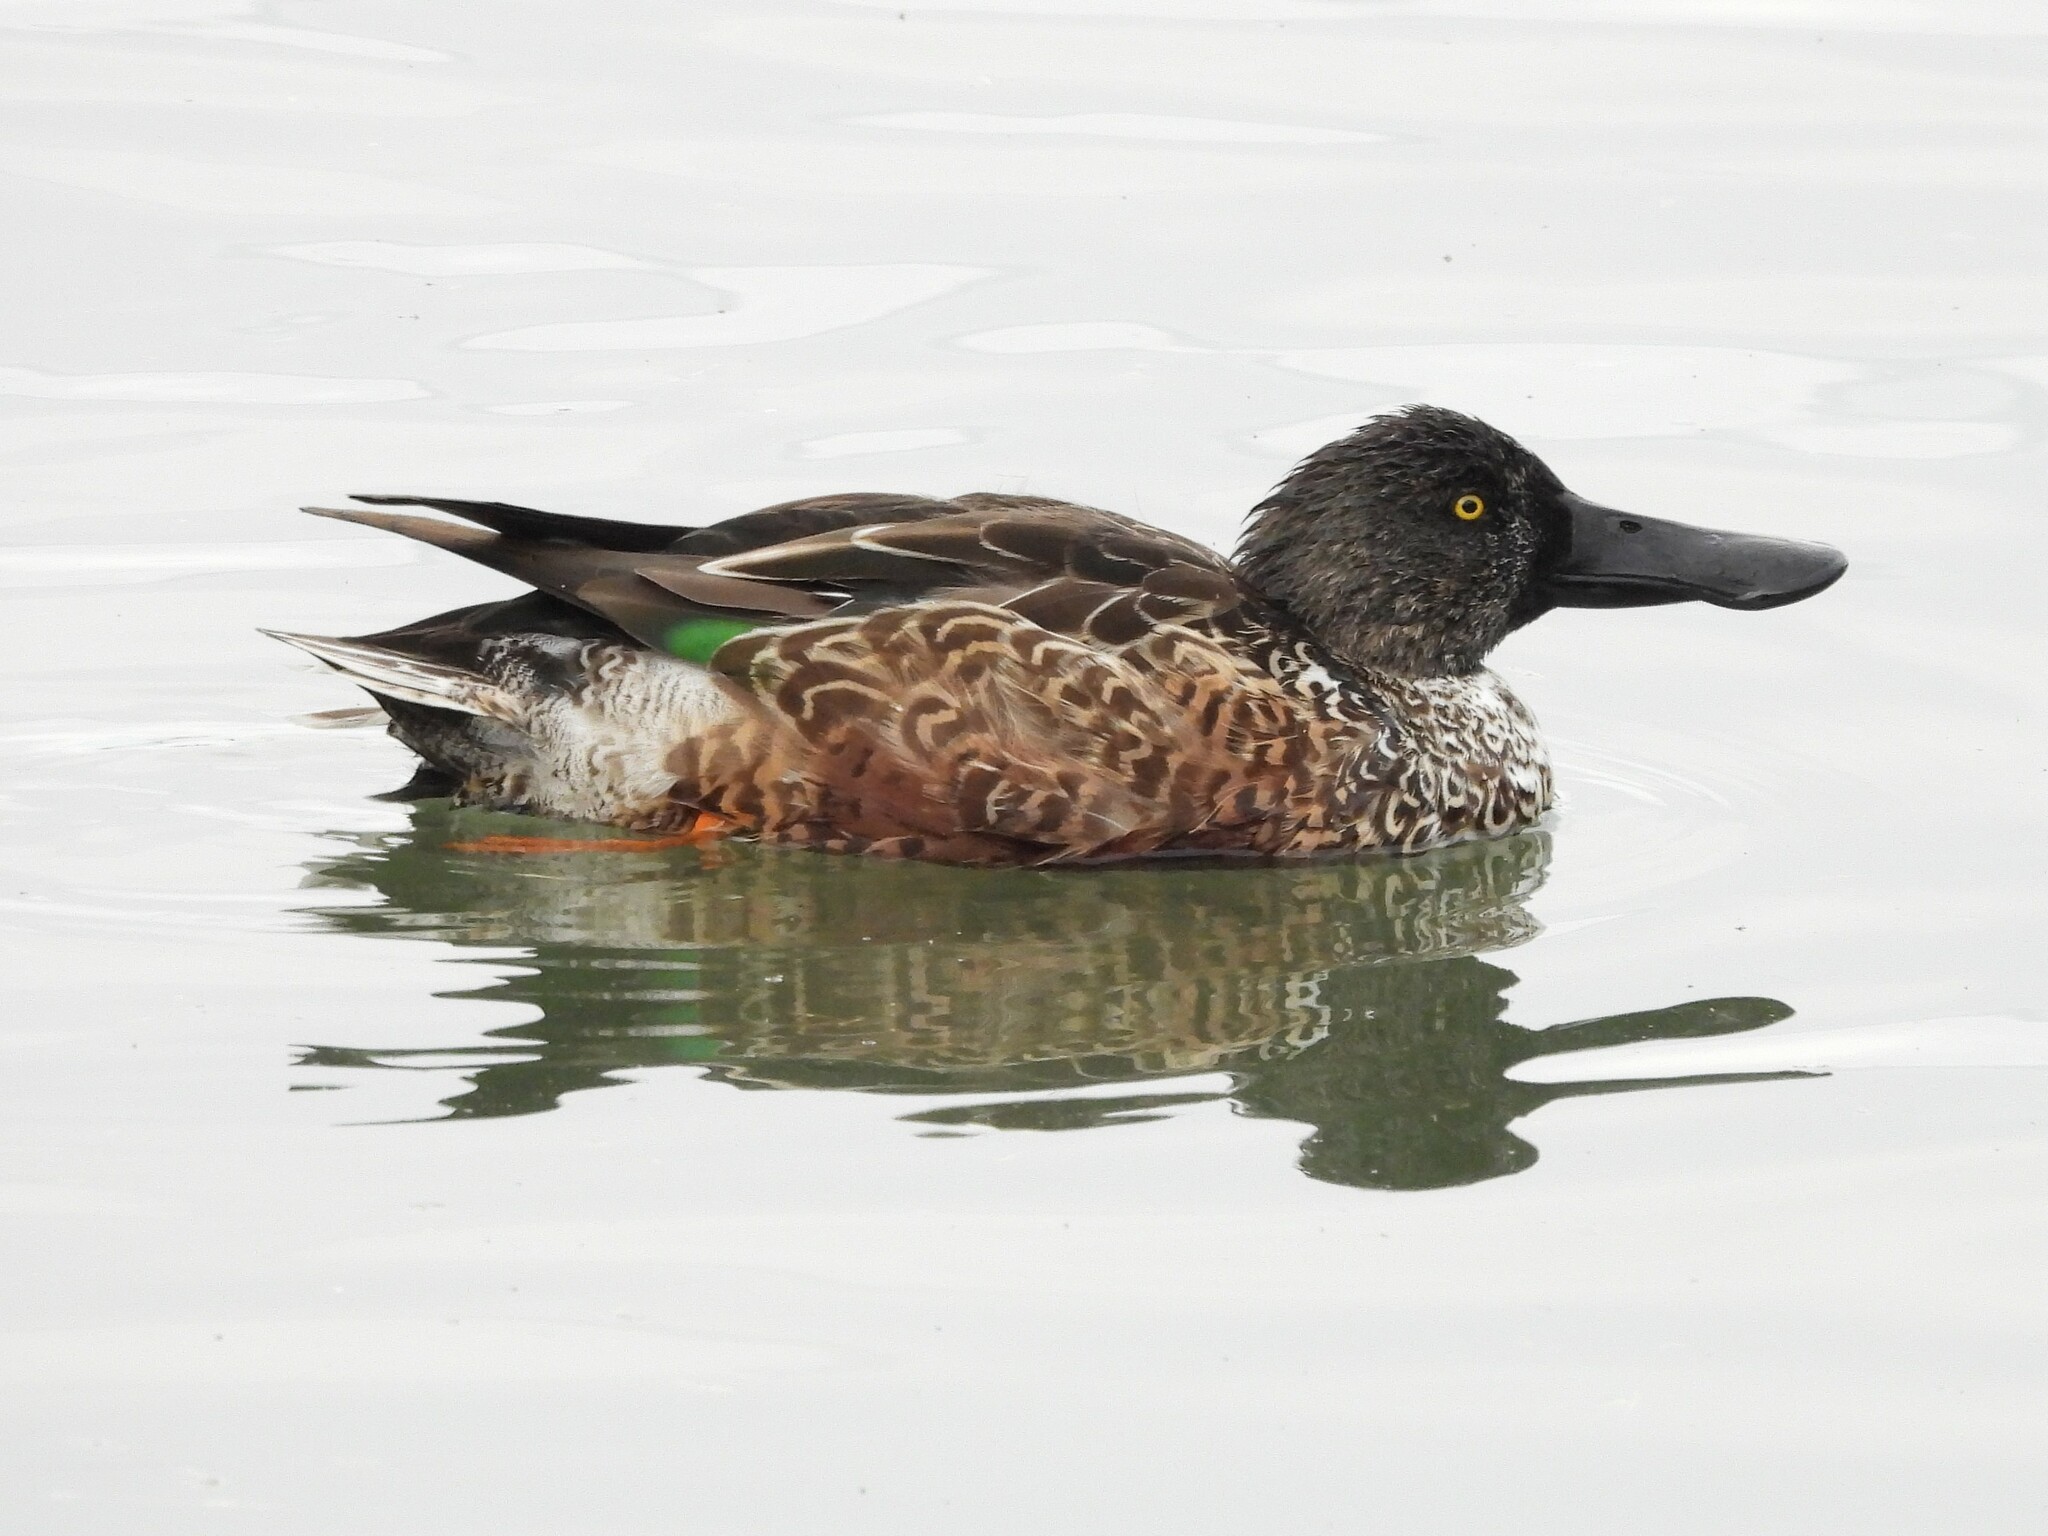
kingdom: Animalia
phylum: Chordata
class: Aves
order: Anseriformes
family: Anatidae
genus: Spatula
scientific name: Spatula clypeata
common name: Northern shoveler
